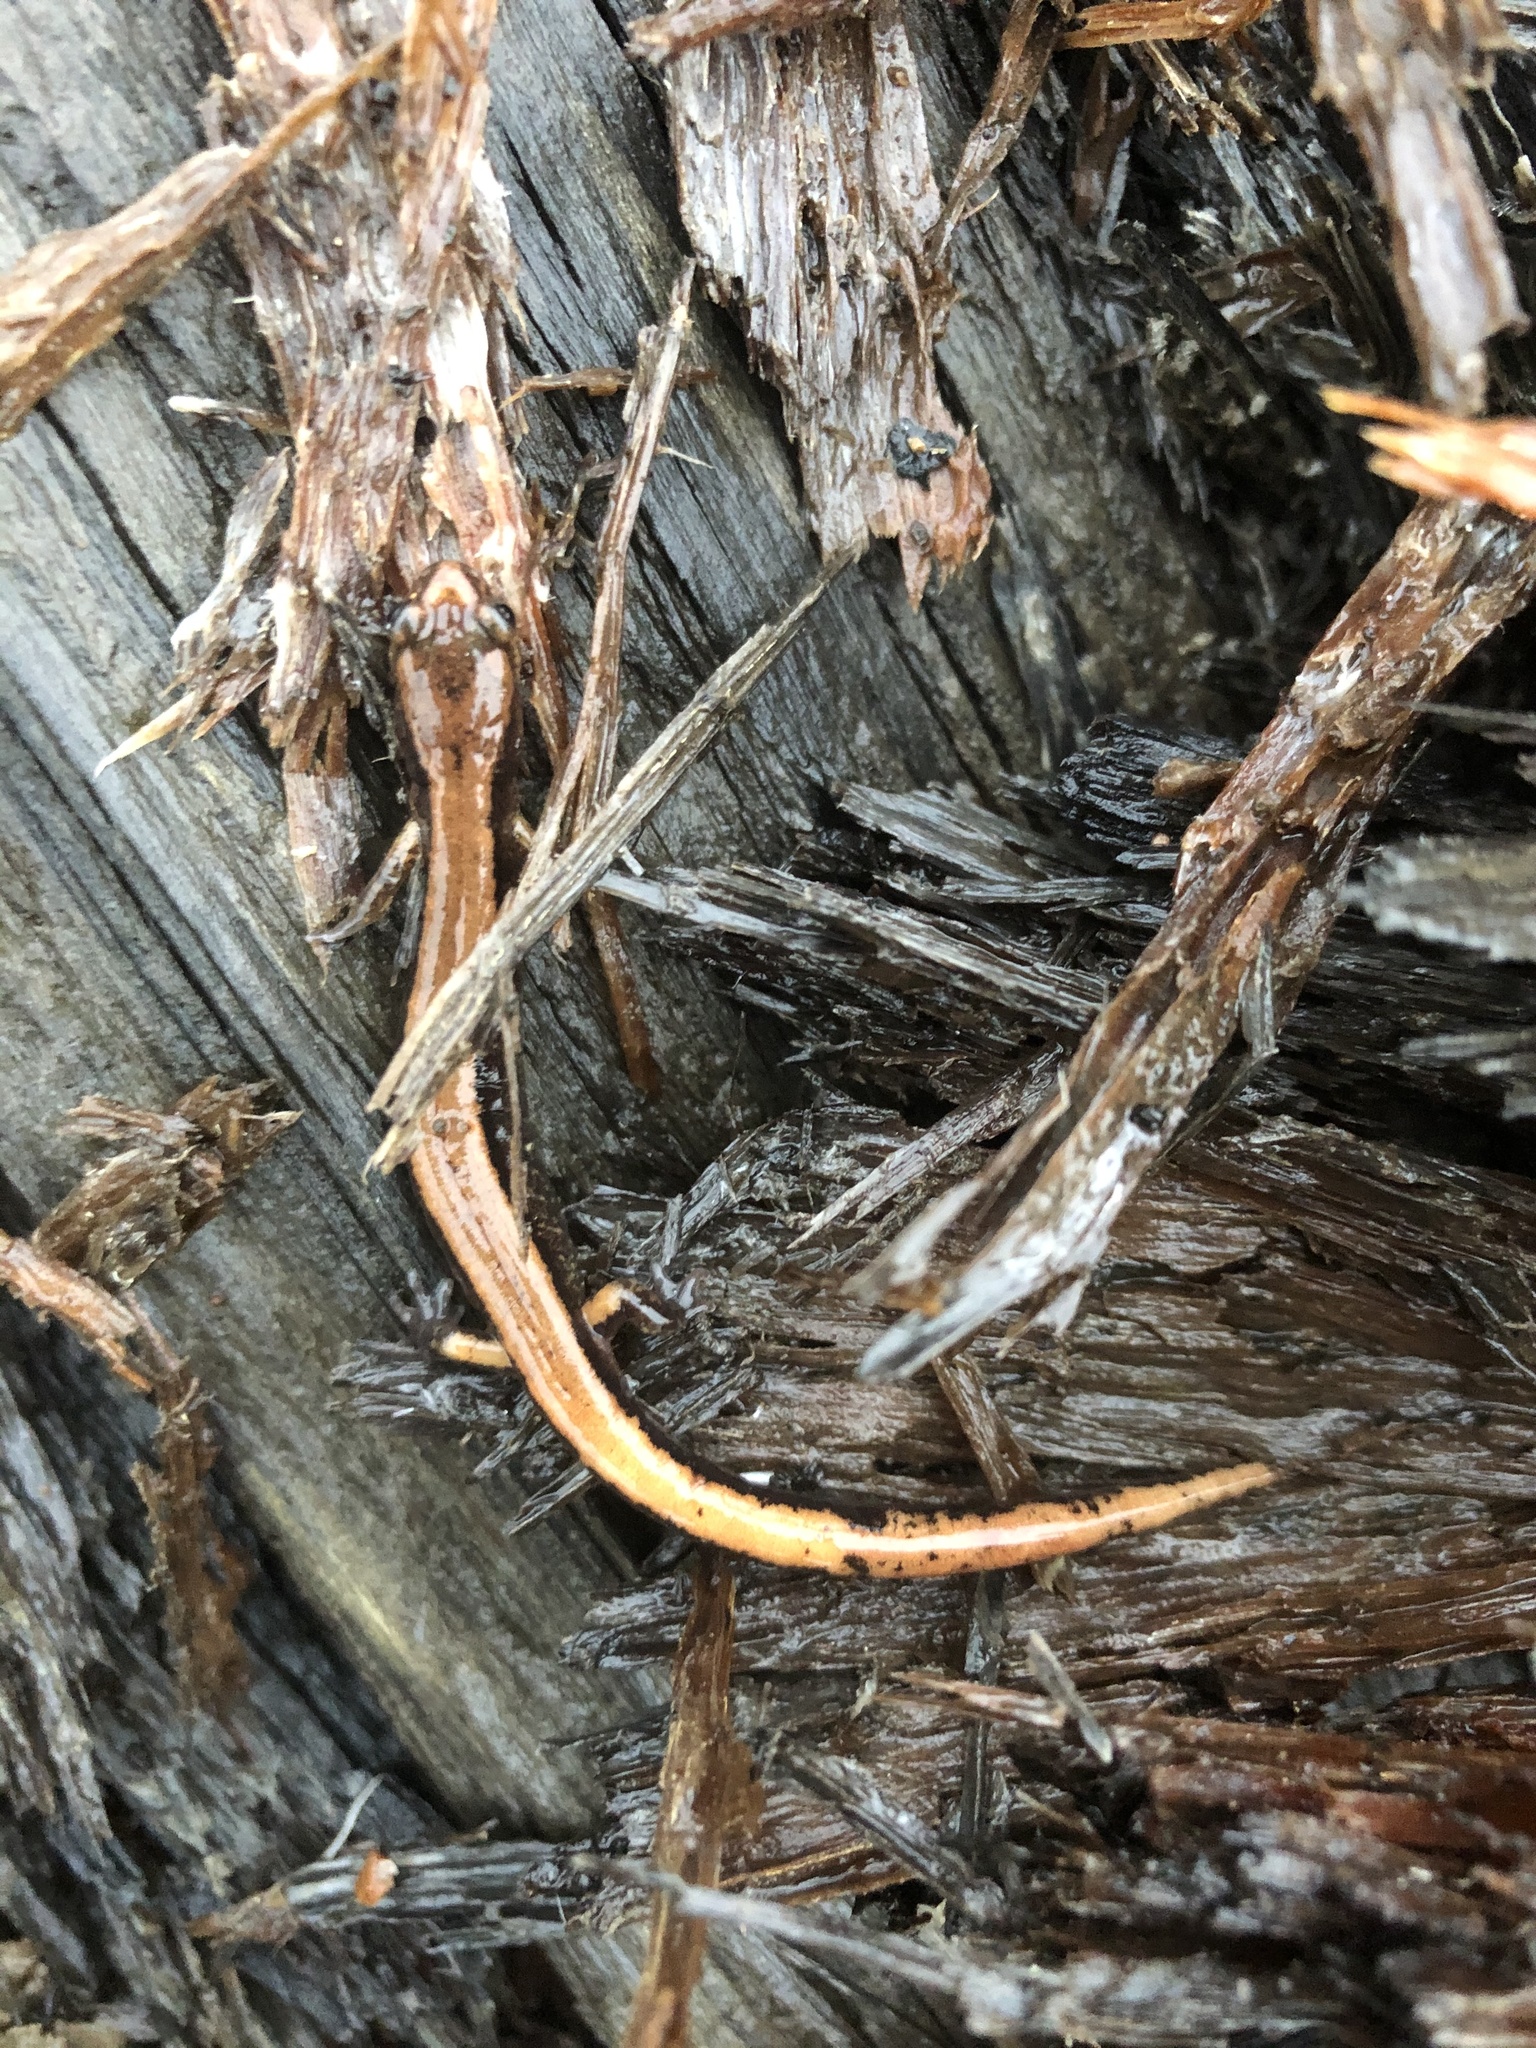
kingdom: Animalia
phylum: Chordata
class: Amphibia
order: Caudata
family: Plethodontidae
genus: Plethodon
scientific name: Plethodon vehiculum
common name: Western red-backed salamander
